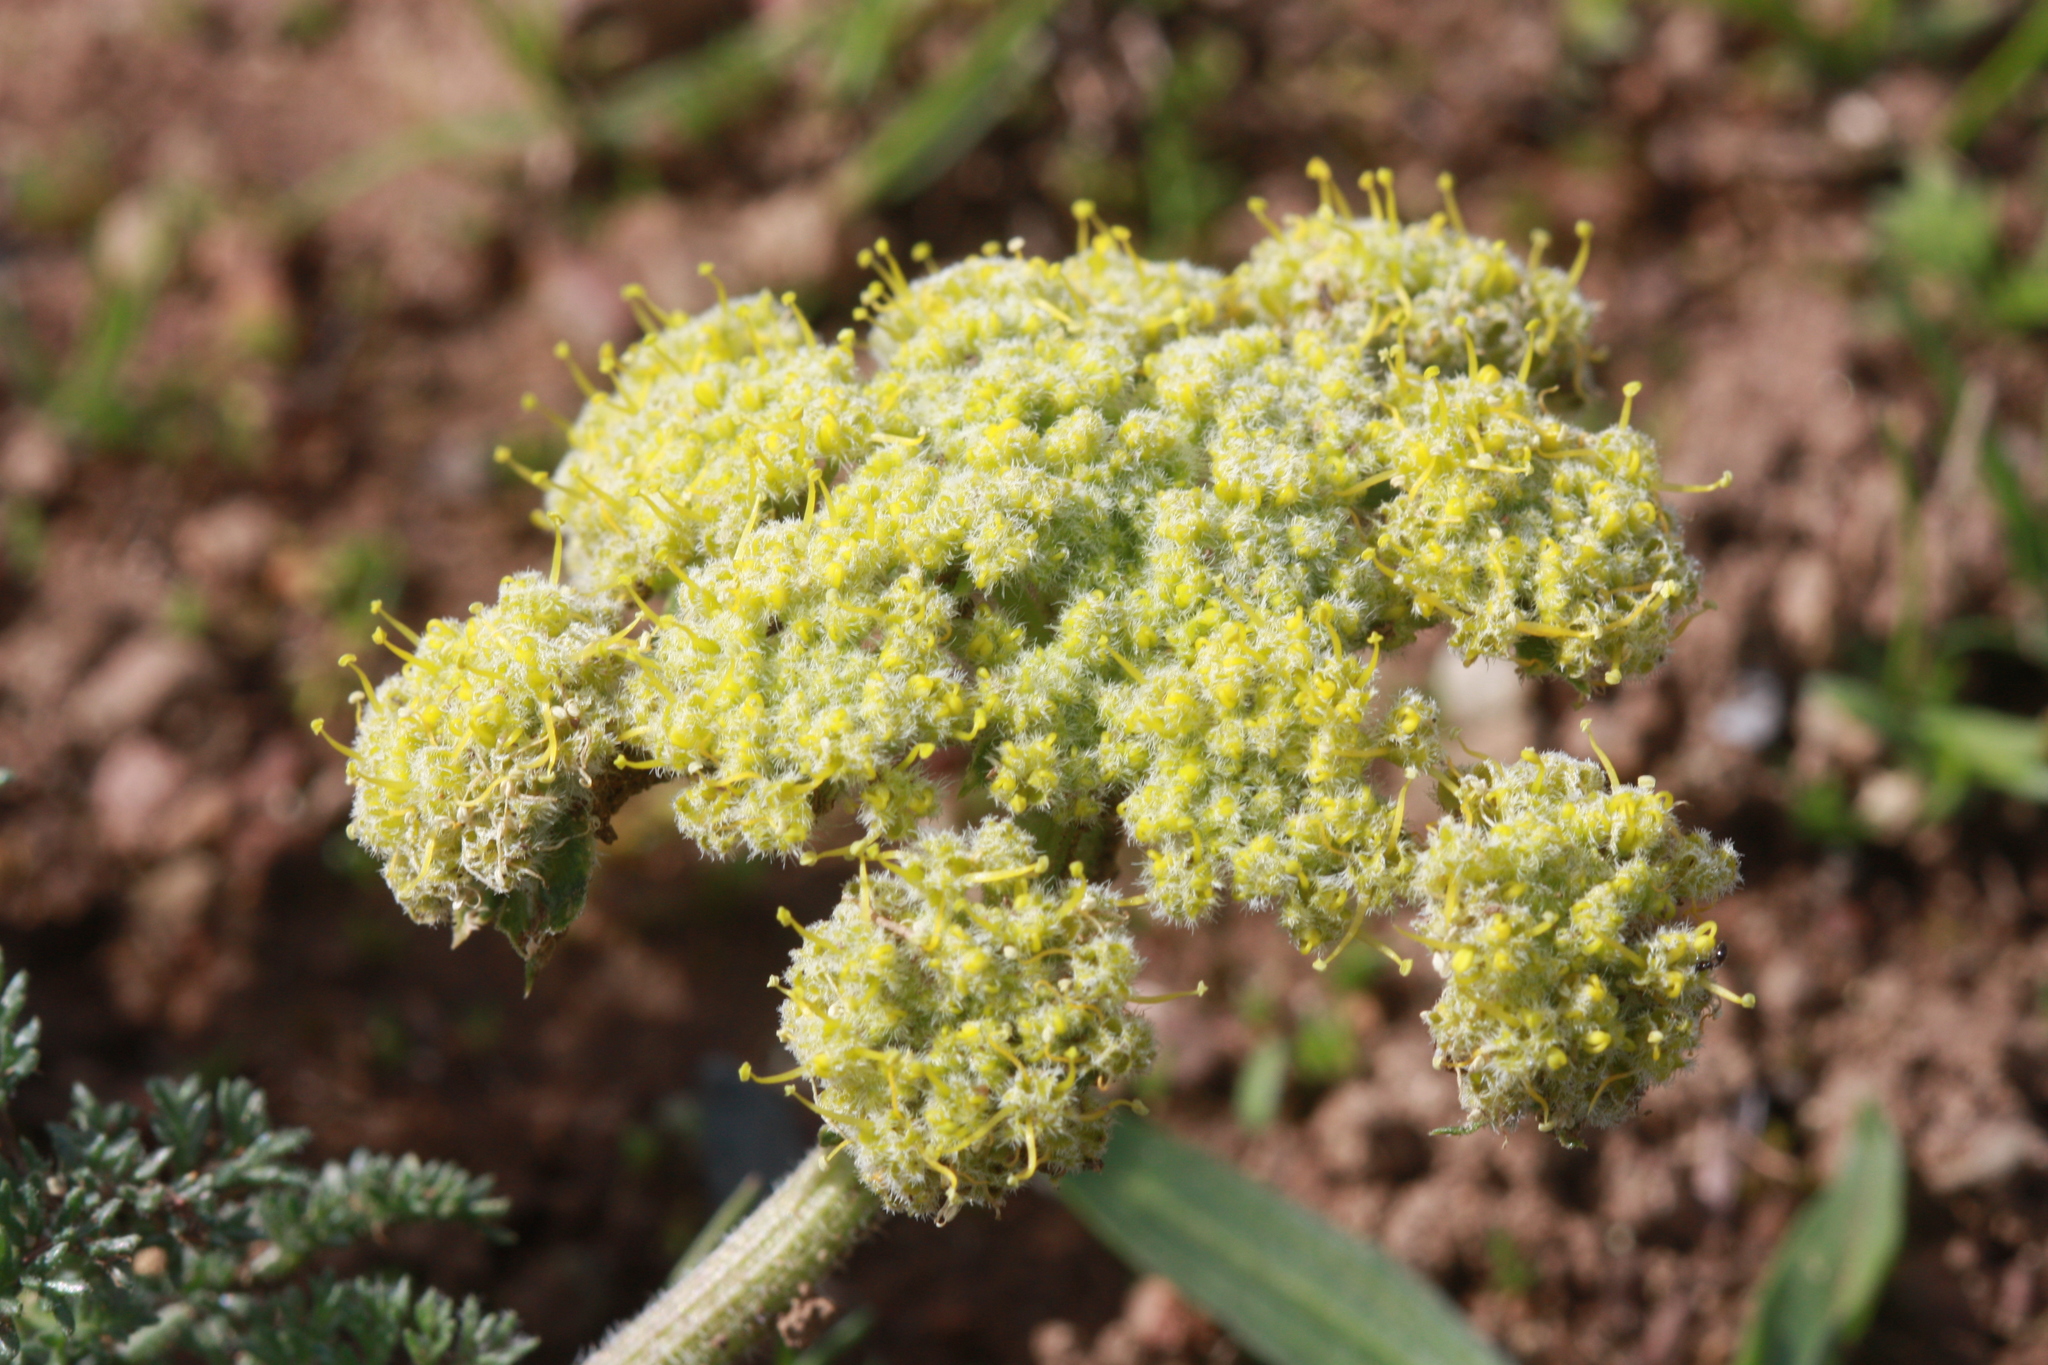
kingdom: Plantae
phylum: Tracheophyta
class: Magnoliopsida
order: Apiales
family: Apiaceae
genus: Lomatium
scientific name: Lomatium dasycarpum
